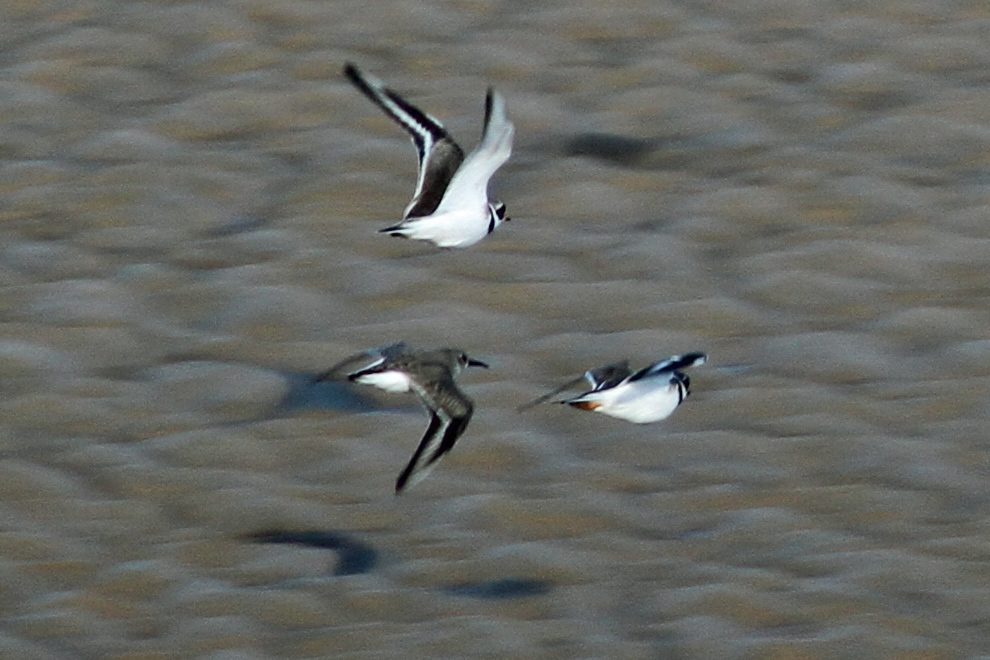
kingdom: Animalia
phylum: Chordata
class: Aves
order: Charadriiformes
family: Charadriidae
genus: Charadrius
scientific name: Charadrius hiaticula
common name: Common ringed plover
